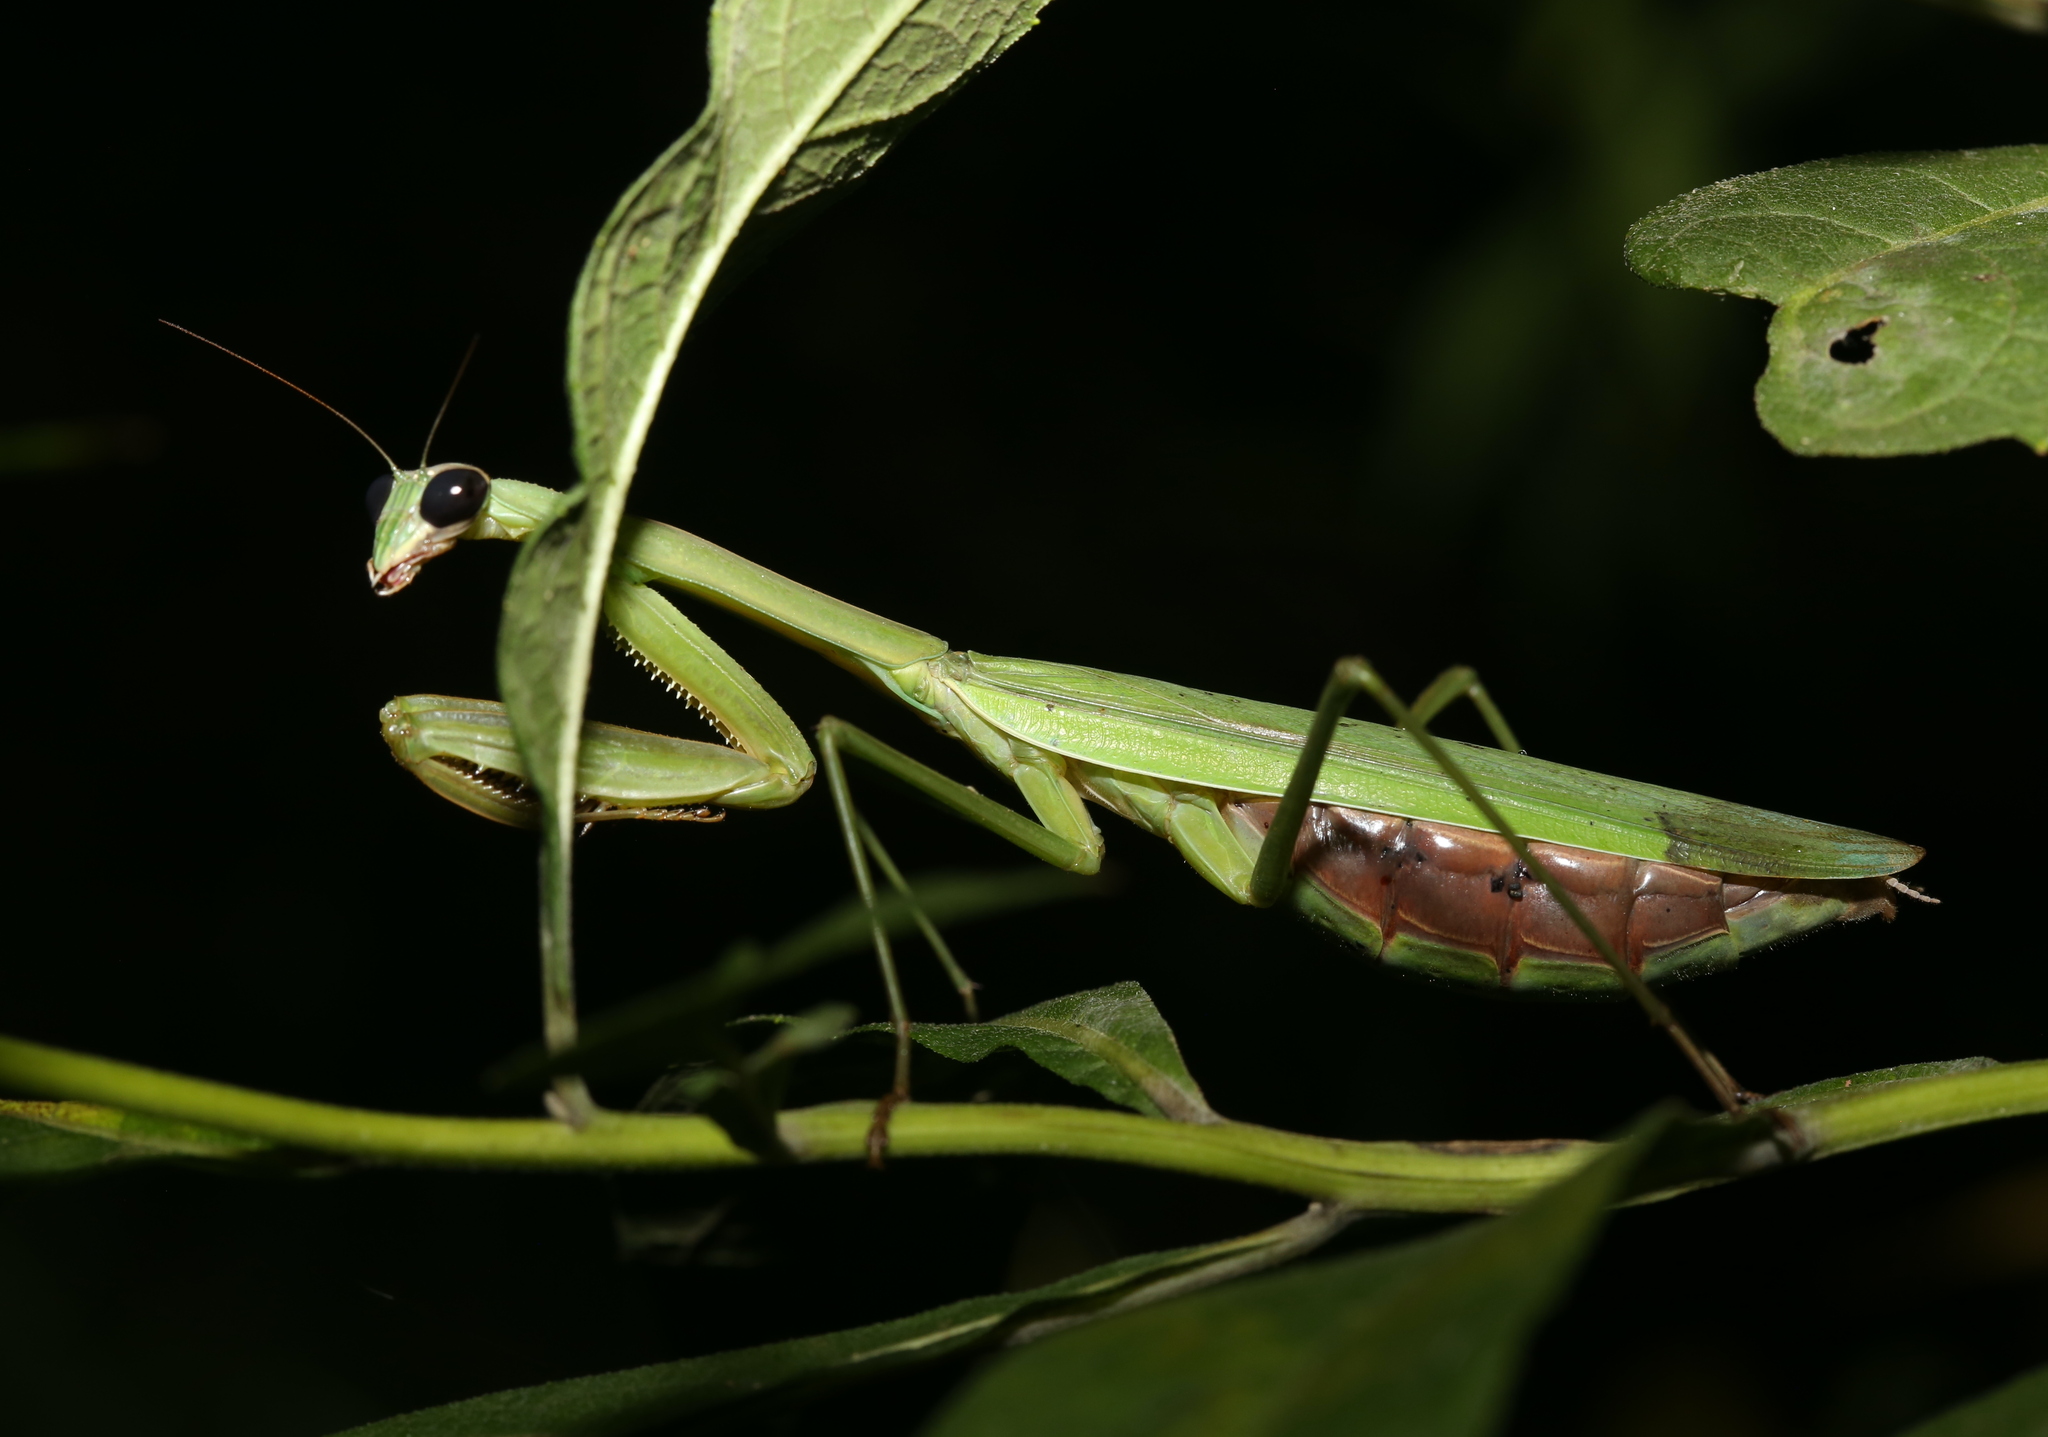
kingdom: Animalia
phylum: Arthropoda
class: Insecta
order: Mantodea
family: Mantidae
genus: Tenodera
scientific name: Tenodera sinensis
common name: Chinese mantis
